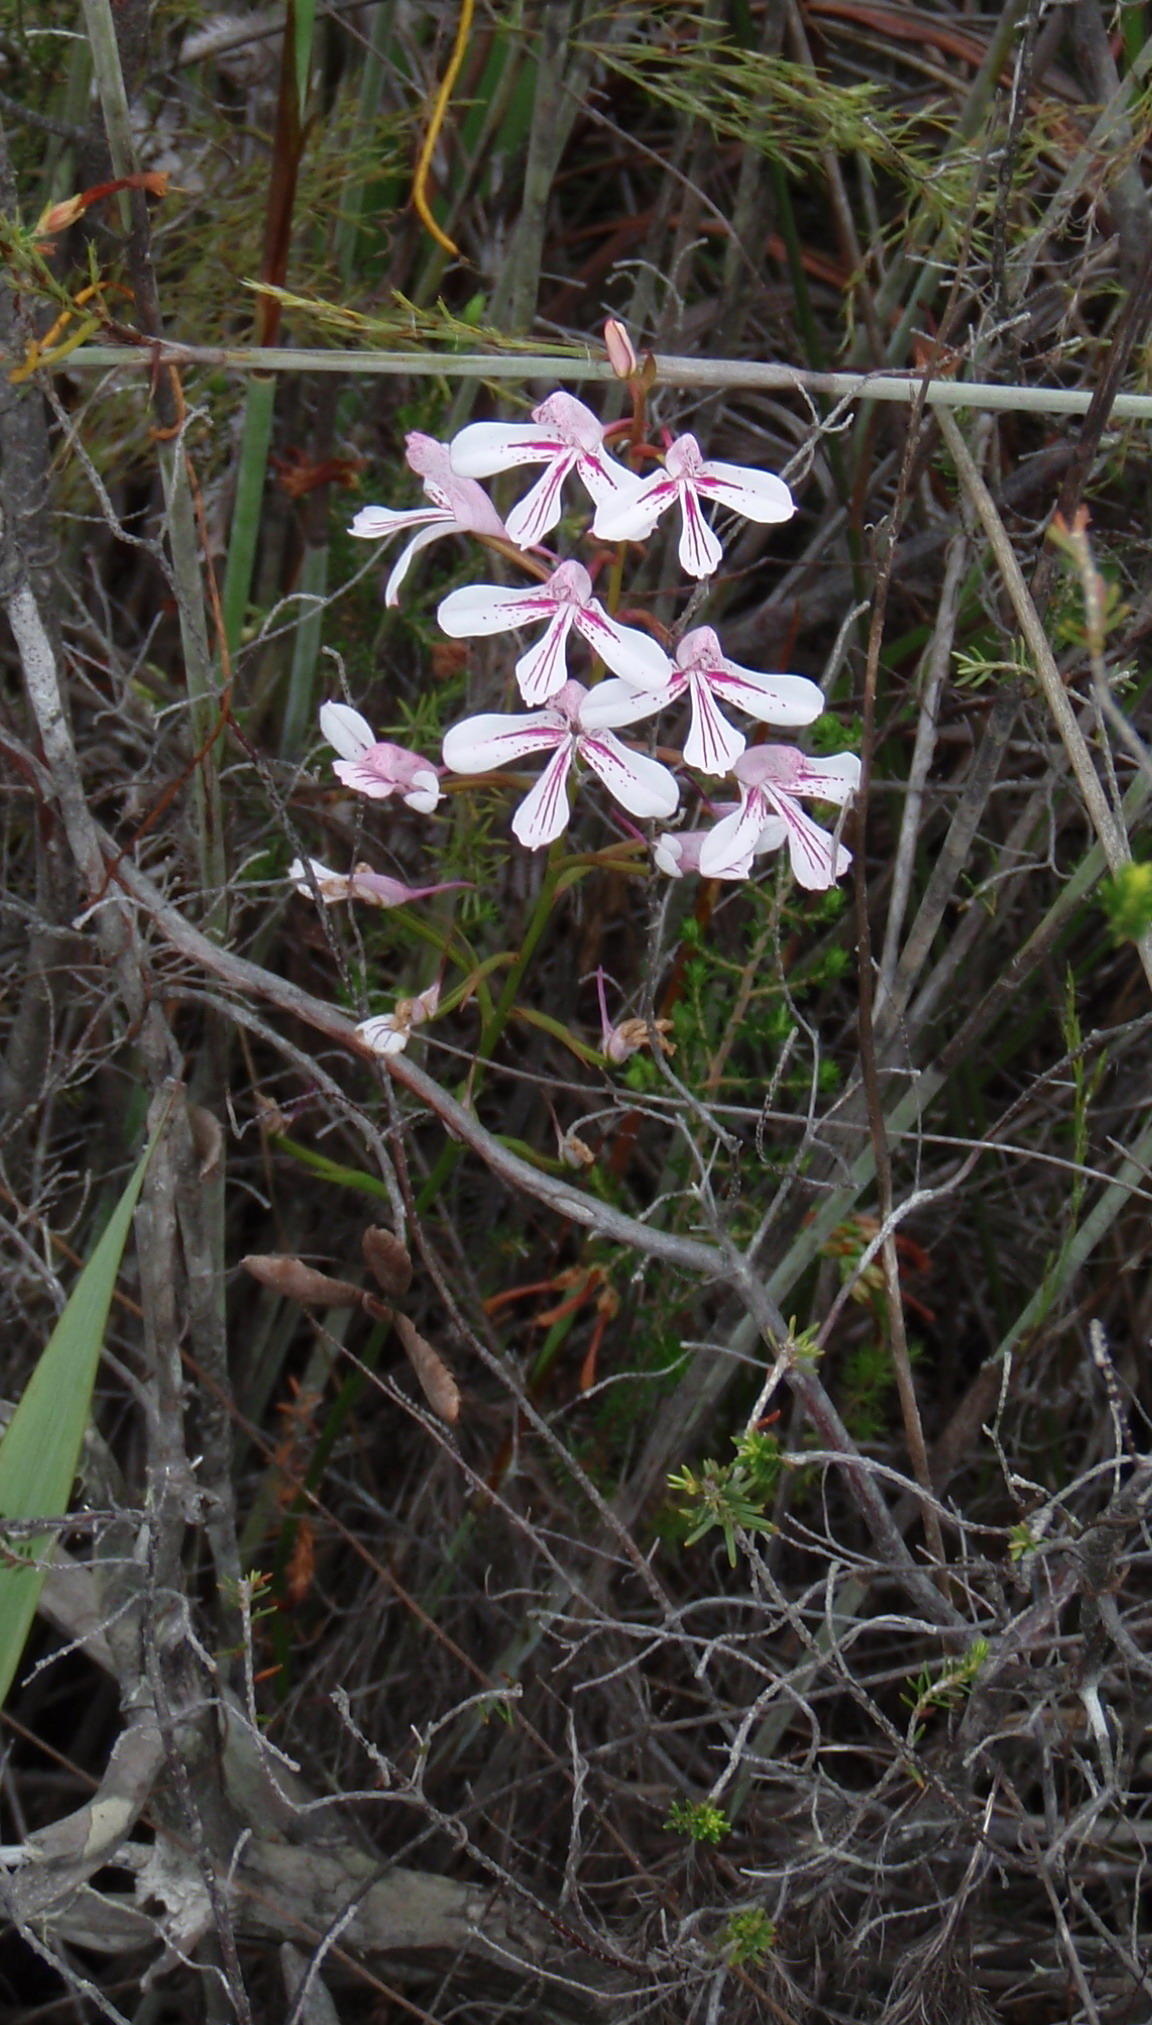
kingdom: Plantae
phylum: Tracheophyta
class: Liliopsida
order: Asparagales
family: Orchidaceae
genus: Disa
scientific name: Disa gladioliflora
